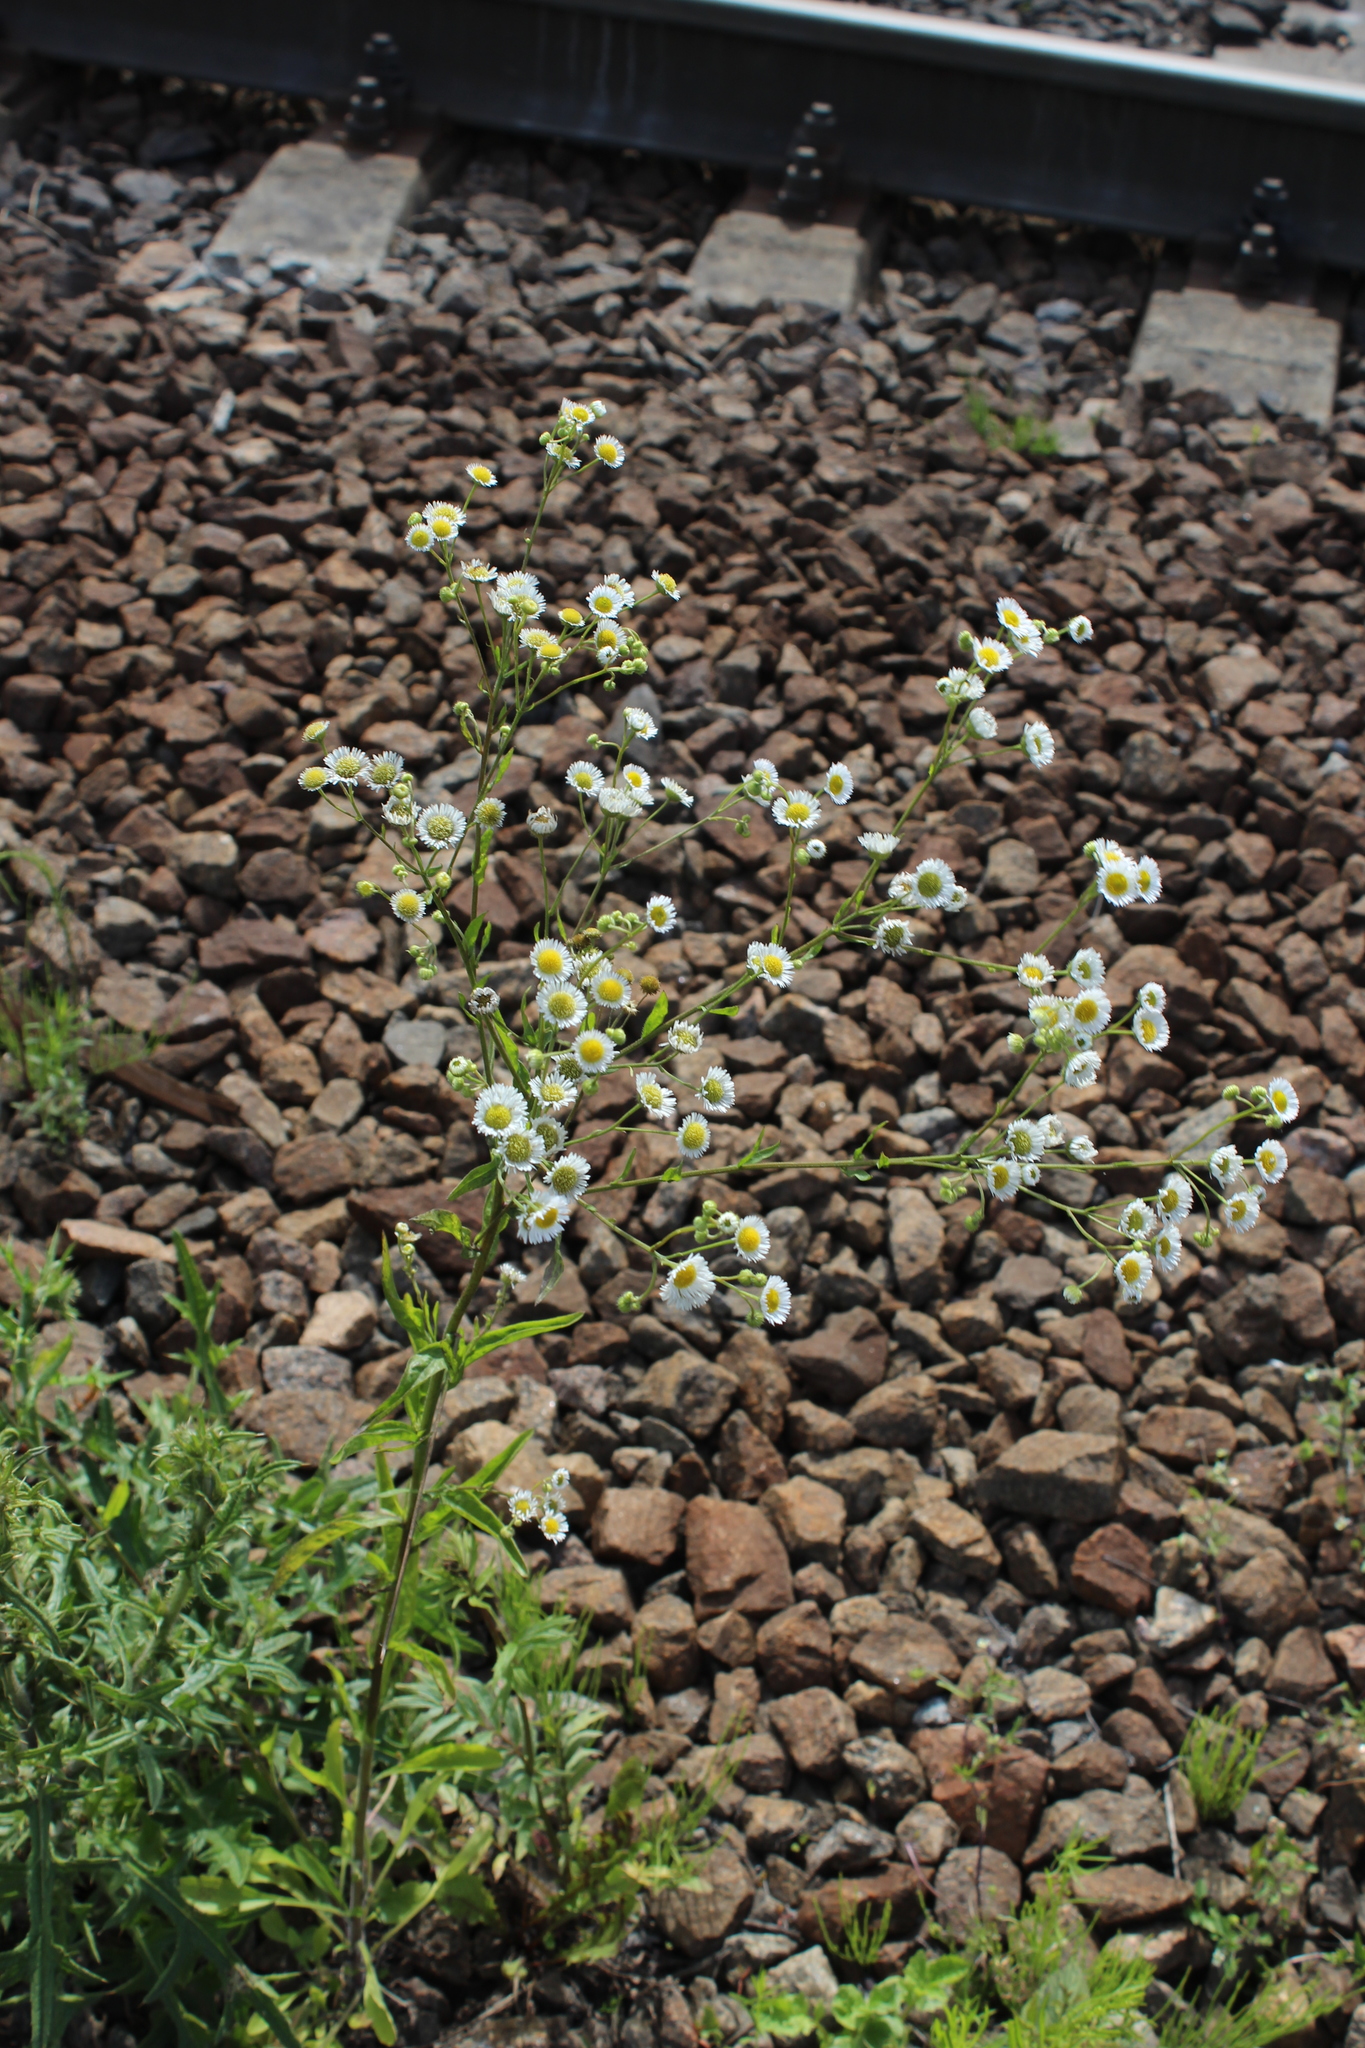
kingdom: Plantae
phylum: Tracheophyta
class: Magnoliopsida
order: Asterales
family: Asteraceae
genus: Erigeron
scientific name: Erigeron annuus
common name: Tall fleabane
